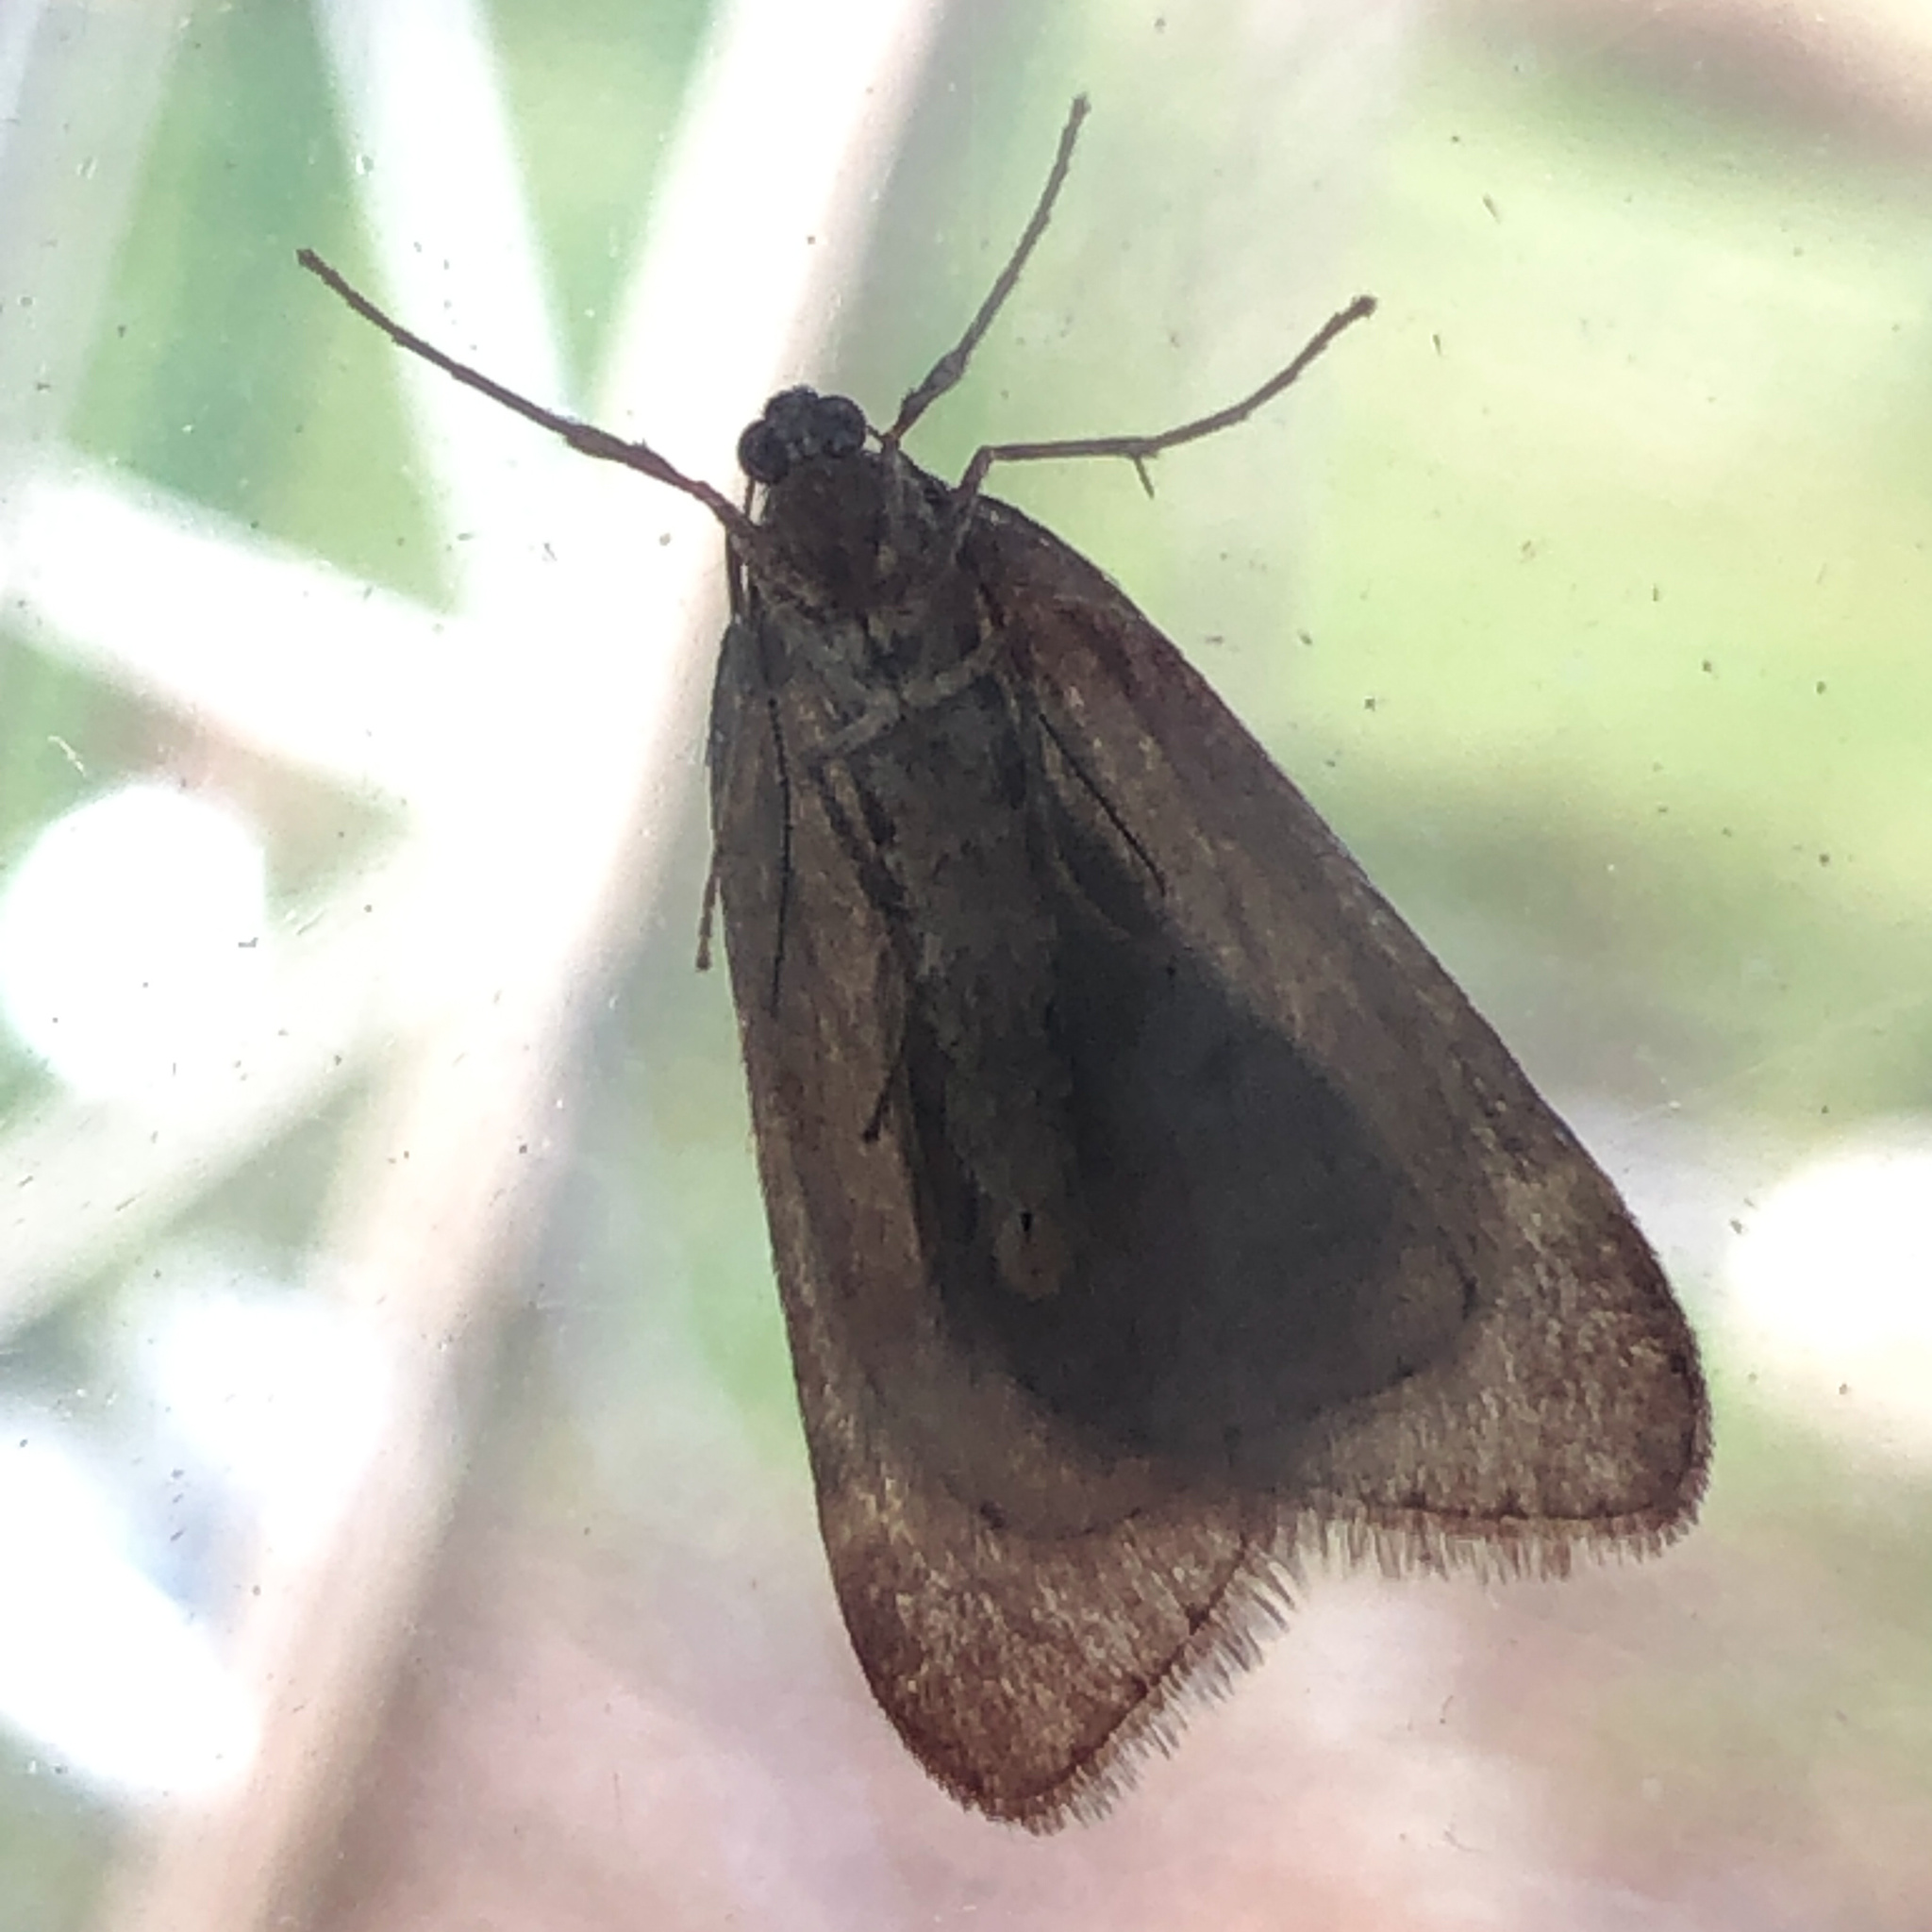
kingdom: Animalia
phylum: Arthropoda
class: Insecta
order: Lepidoptera
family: Geometridae
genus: Alsophila
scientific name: Alsophila pometaria
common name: Fall cankerworm
